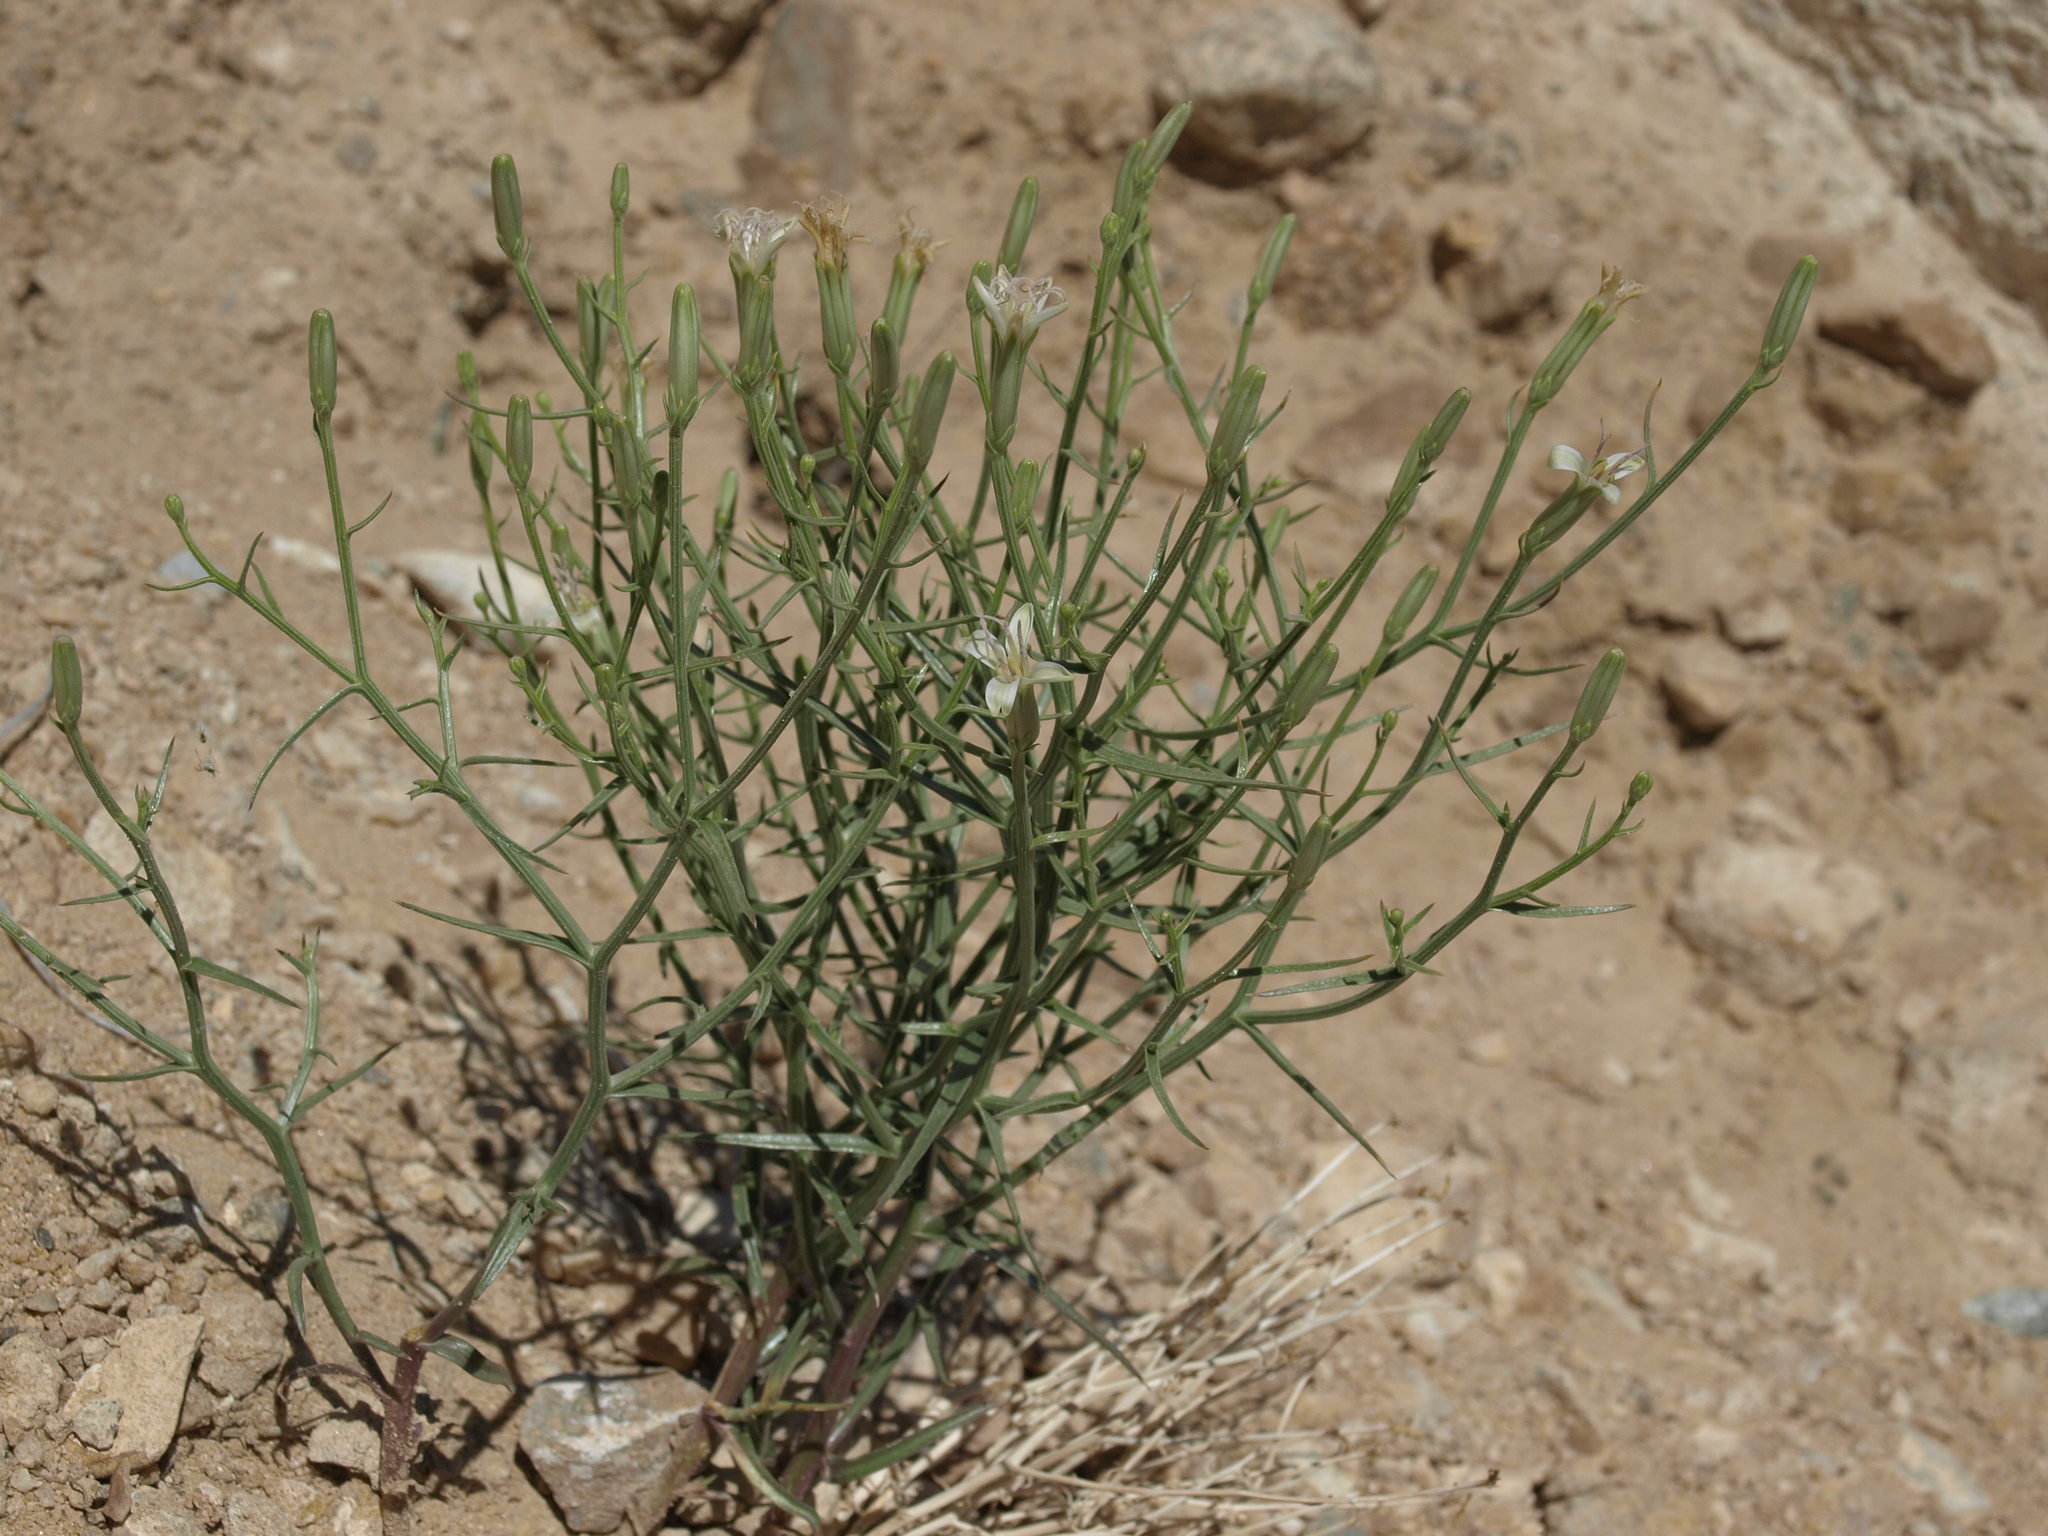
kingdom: Plantae
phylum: Tracheophyta
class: Magnoliopsida
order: Asterales
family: Asteraceae
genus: Chaetadelpha
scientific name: Chaetadelpha wheeleri
